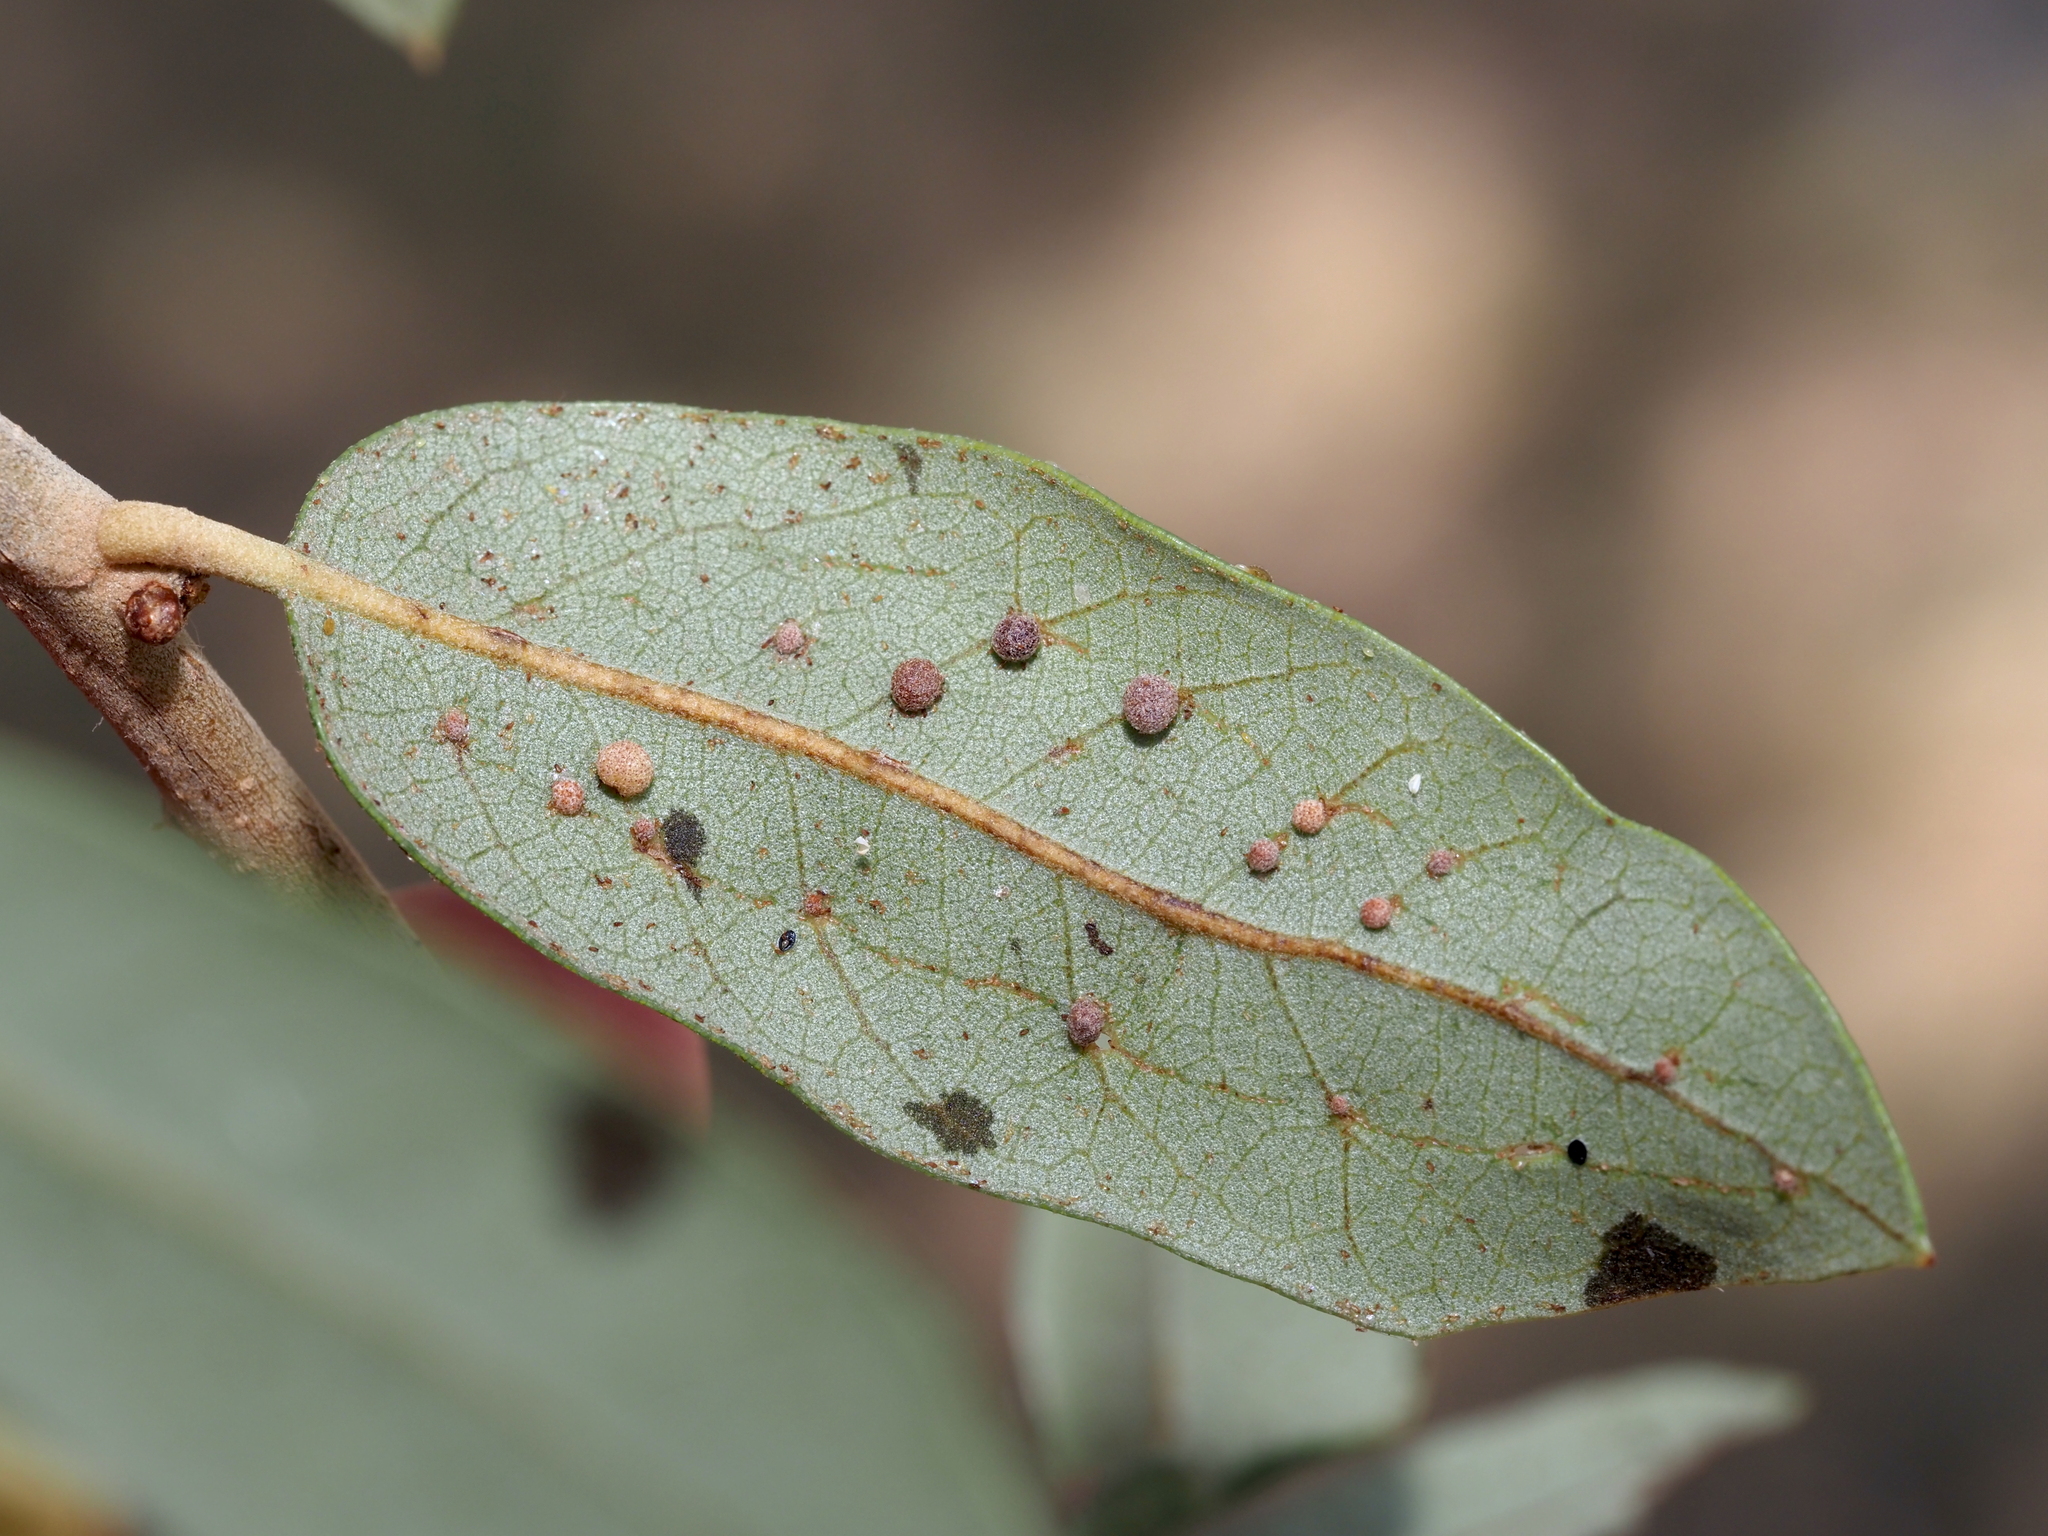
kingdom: Animalia
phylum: Arthropoda
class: Insecta
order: Hymenoptera
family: Cynipidae
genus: Belonocnema
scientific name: Belonocnema kinseyi
